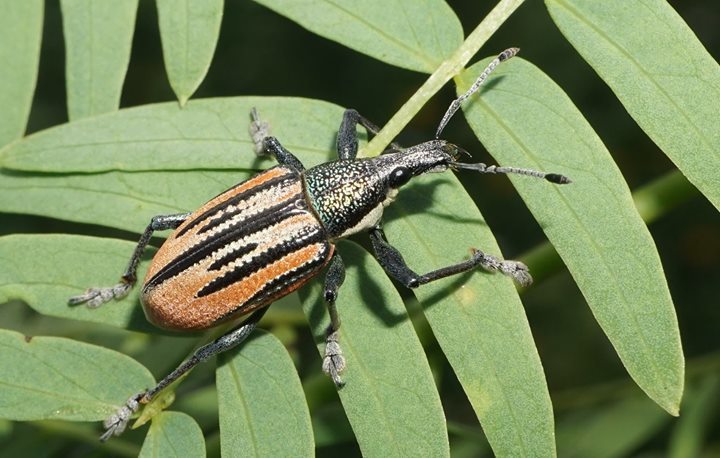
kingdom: Animalia
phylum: Arthropoda
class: Insecta
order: Coleoptera
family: Curculionidae
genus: Diaprepes
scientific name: Diaprepes abbreviatus
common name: Root weevil
